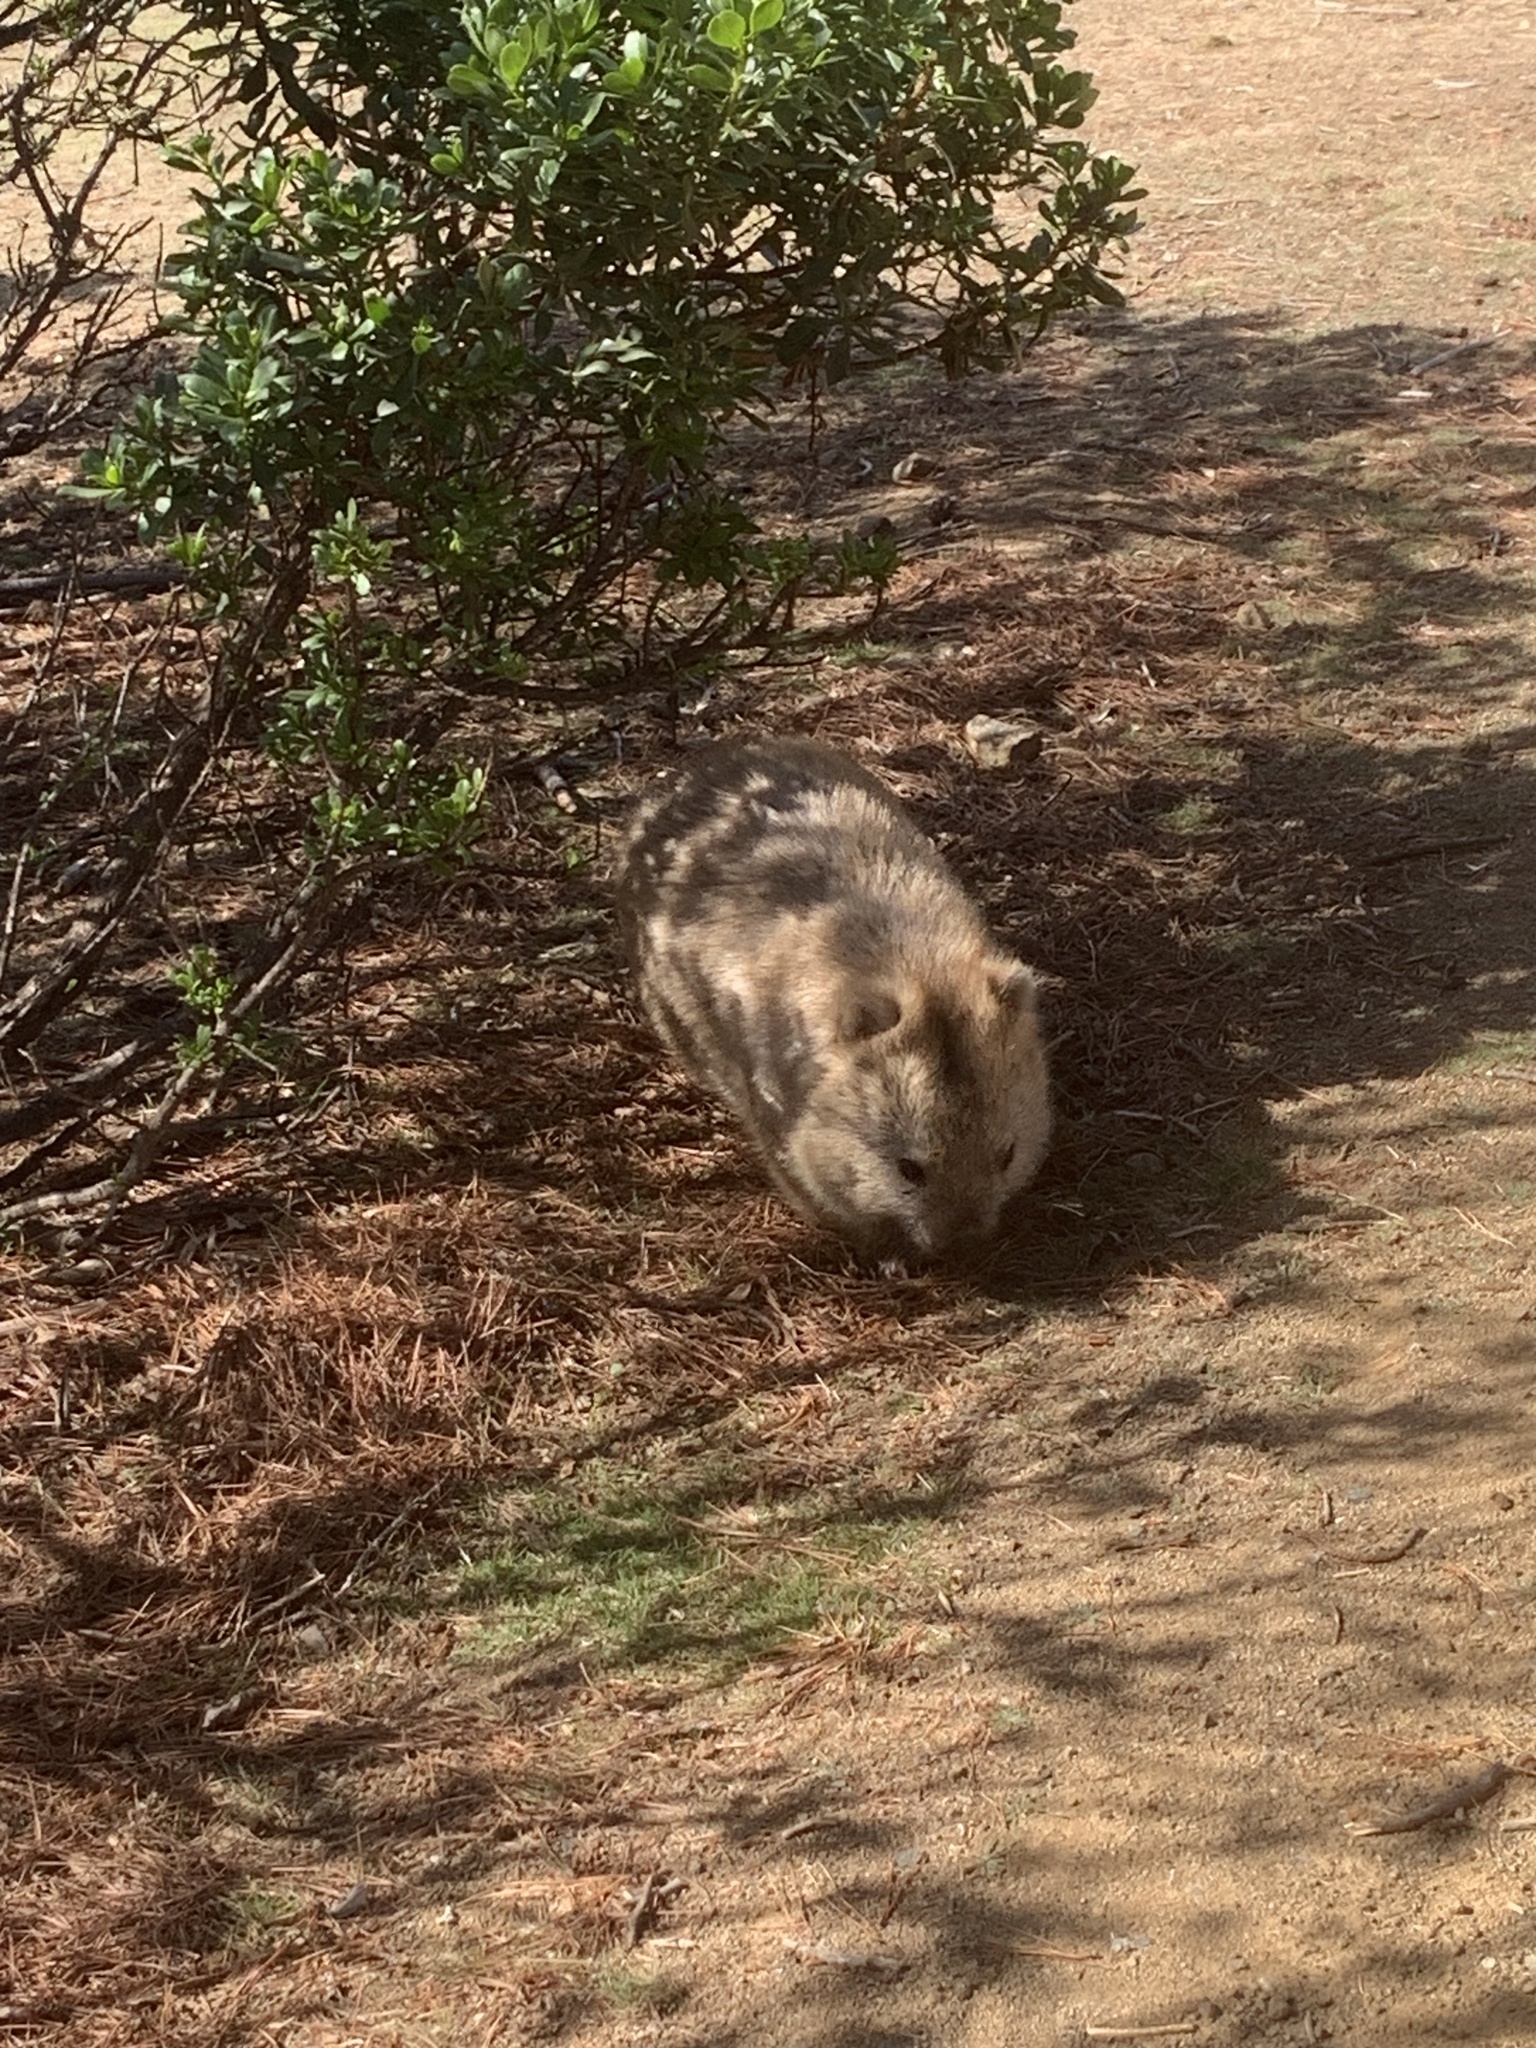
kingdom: Animalia
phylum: Chordata
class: Mammalia
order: Diprotodontia
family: Vombatidae
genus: Vombatus
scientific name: Vombatus ursinus
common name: Common wombat
